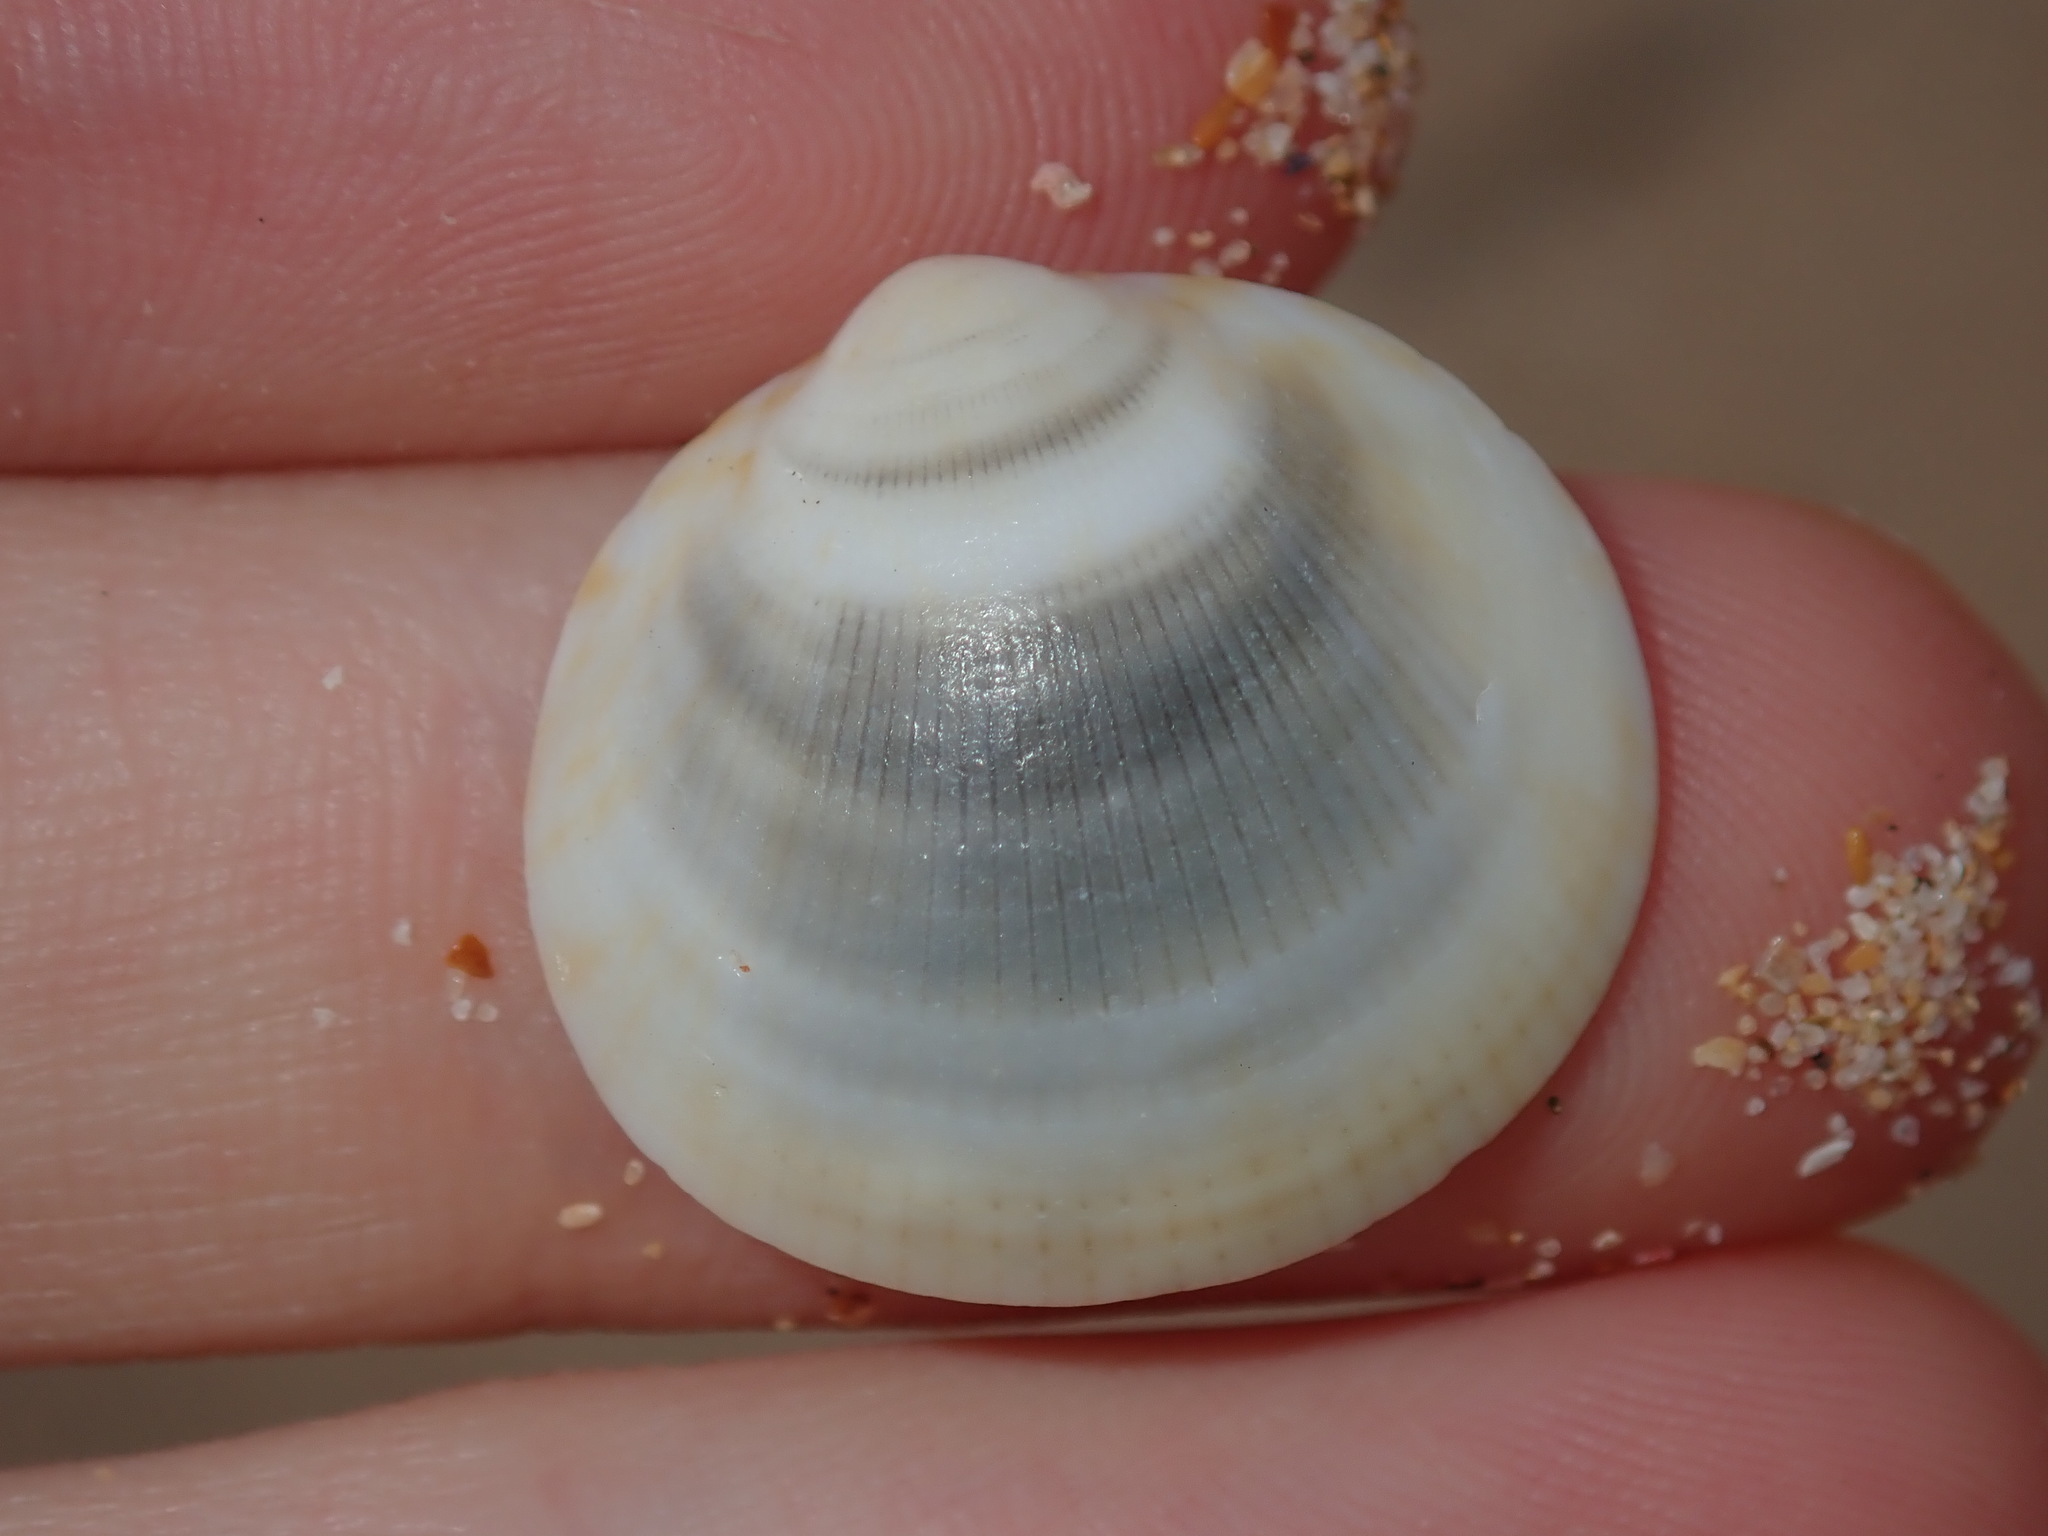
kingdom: Animalia
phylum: Mollusca
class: Bivalvia
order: Arcida
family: Glycymerididae
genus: Glycymeris
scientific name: Glycymeris grayana
